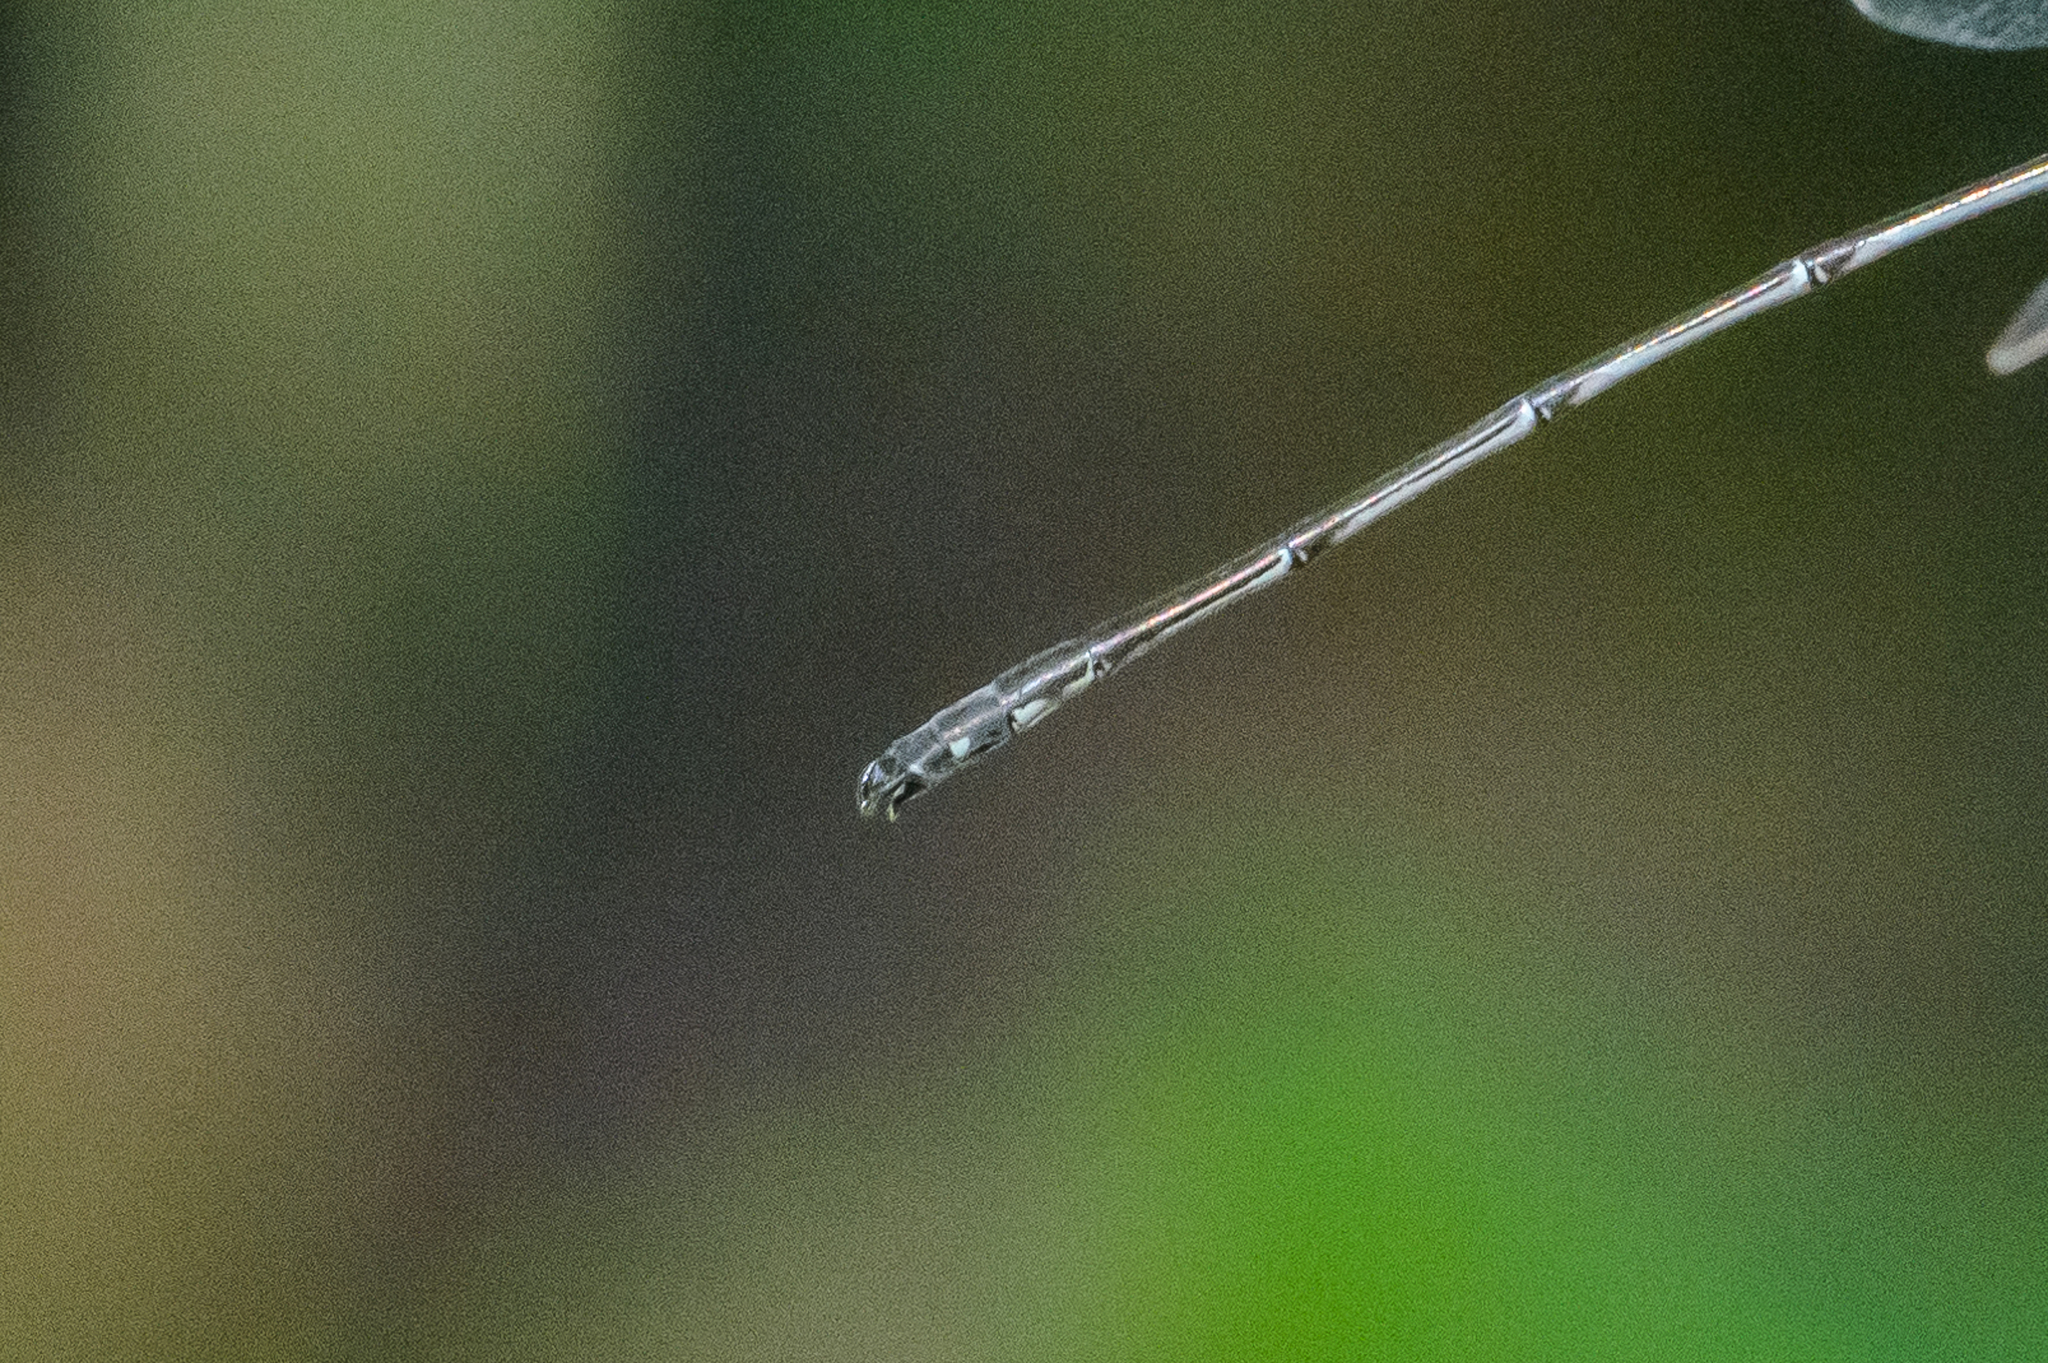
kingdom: Animalia
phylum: Arthropoda
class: Insecta
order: Odonata
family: Lestidae
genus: Lestes
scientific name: Lestes rectangularis
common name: Slender spreadwing
